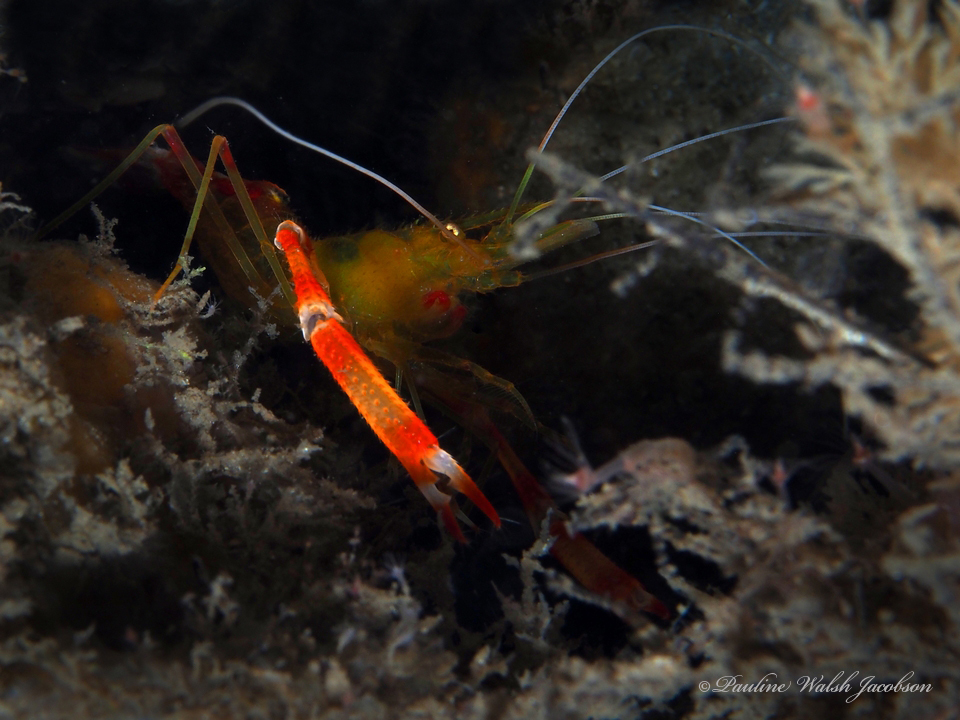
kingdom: Animalia
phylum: Arthropoda
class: Malacostraca
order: Decapoda
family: Stenopodidae
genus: Stenopus
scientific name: Stenopus scutellatus
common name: Golden coral shrimp
